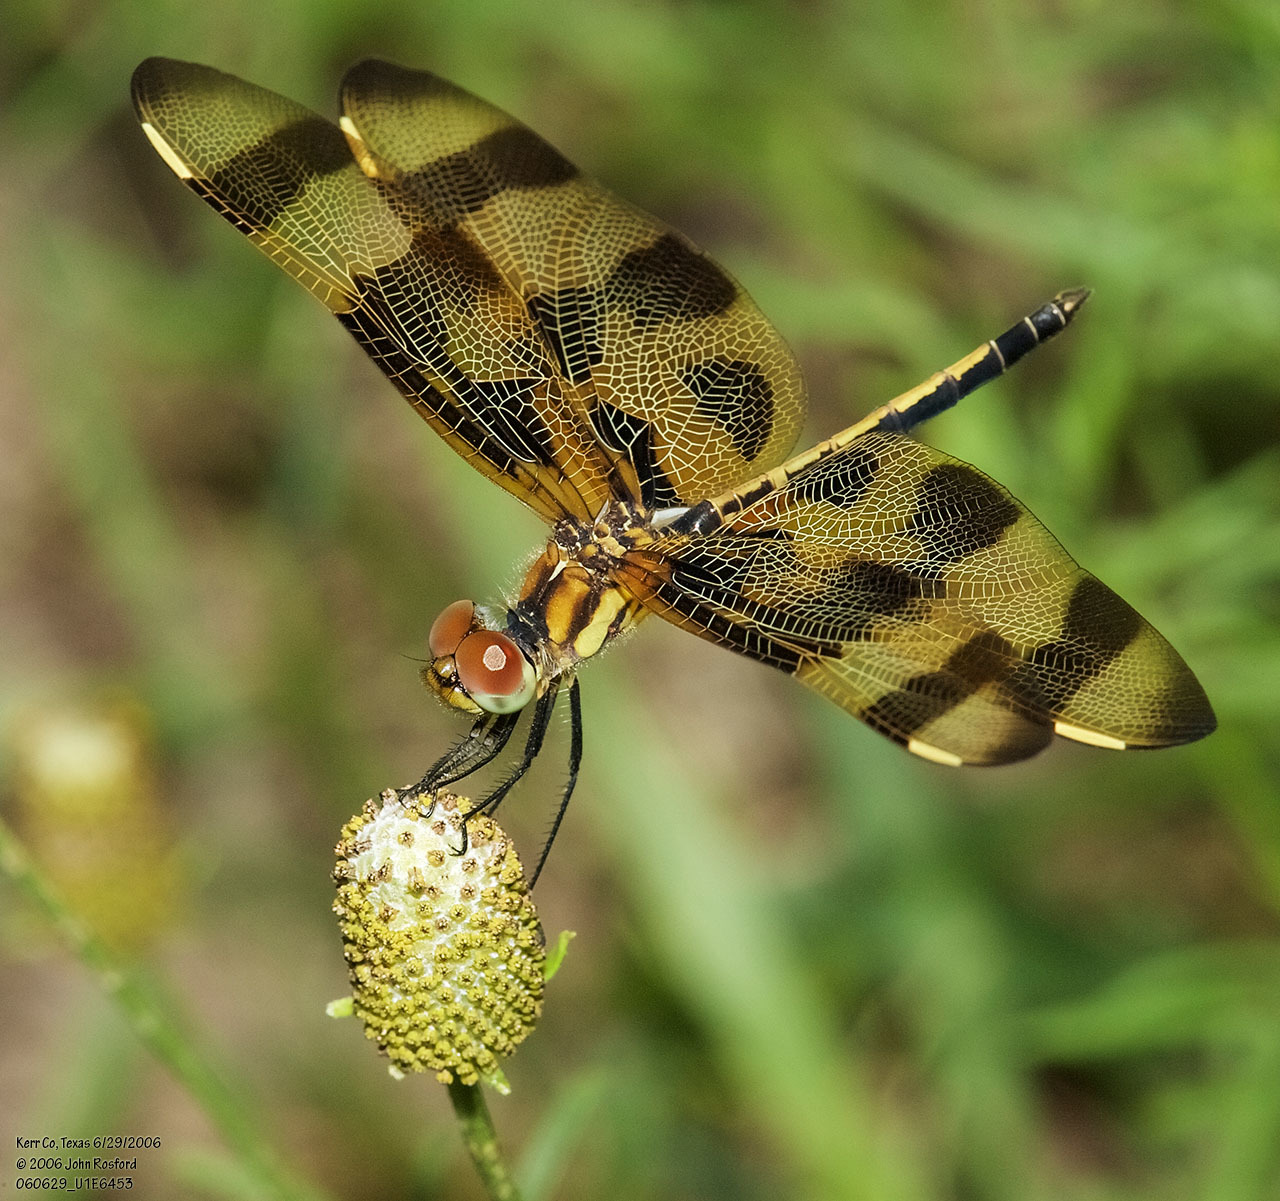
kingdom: Animalia
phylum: Arthropoda
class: Insecta
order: Odonata
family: Libellulidae
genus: Celithemis
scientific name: Celithemis eponina
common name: Halloween pennant
